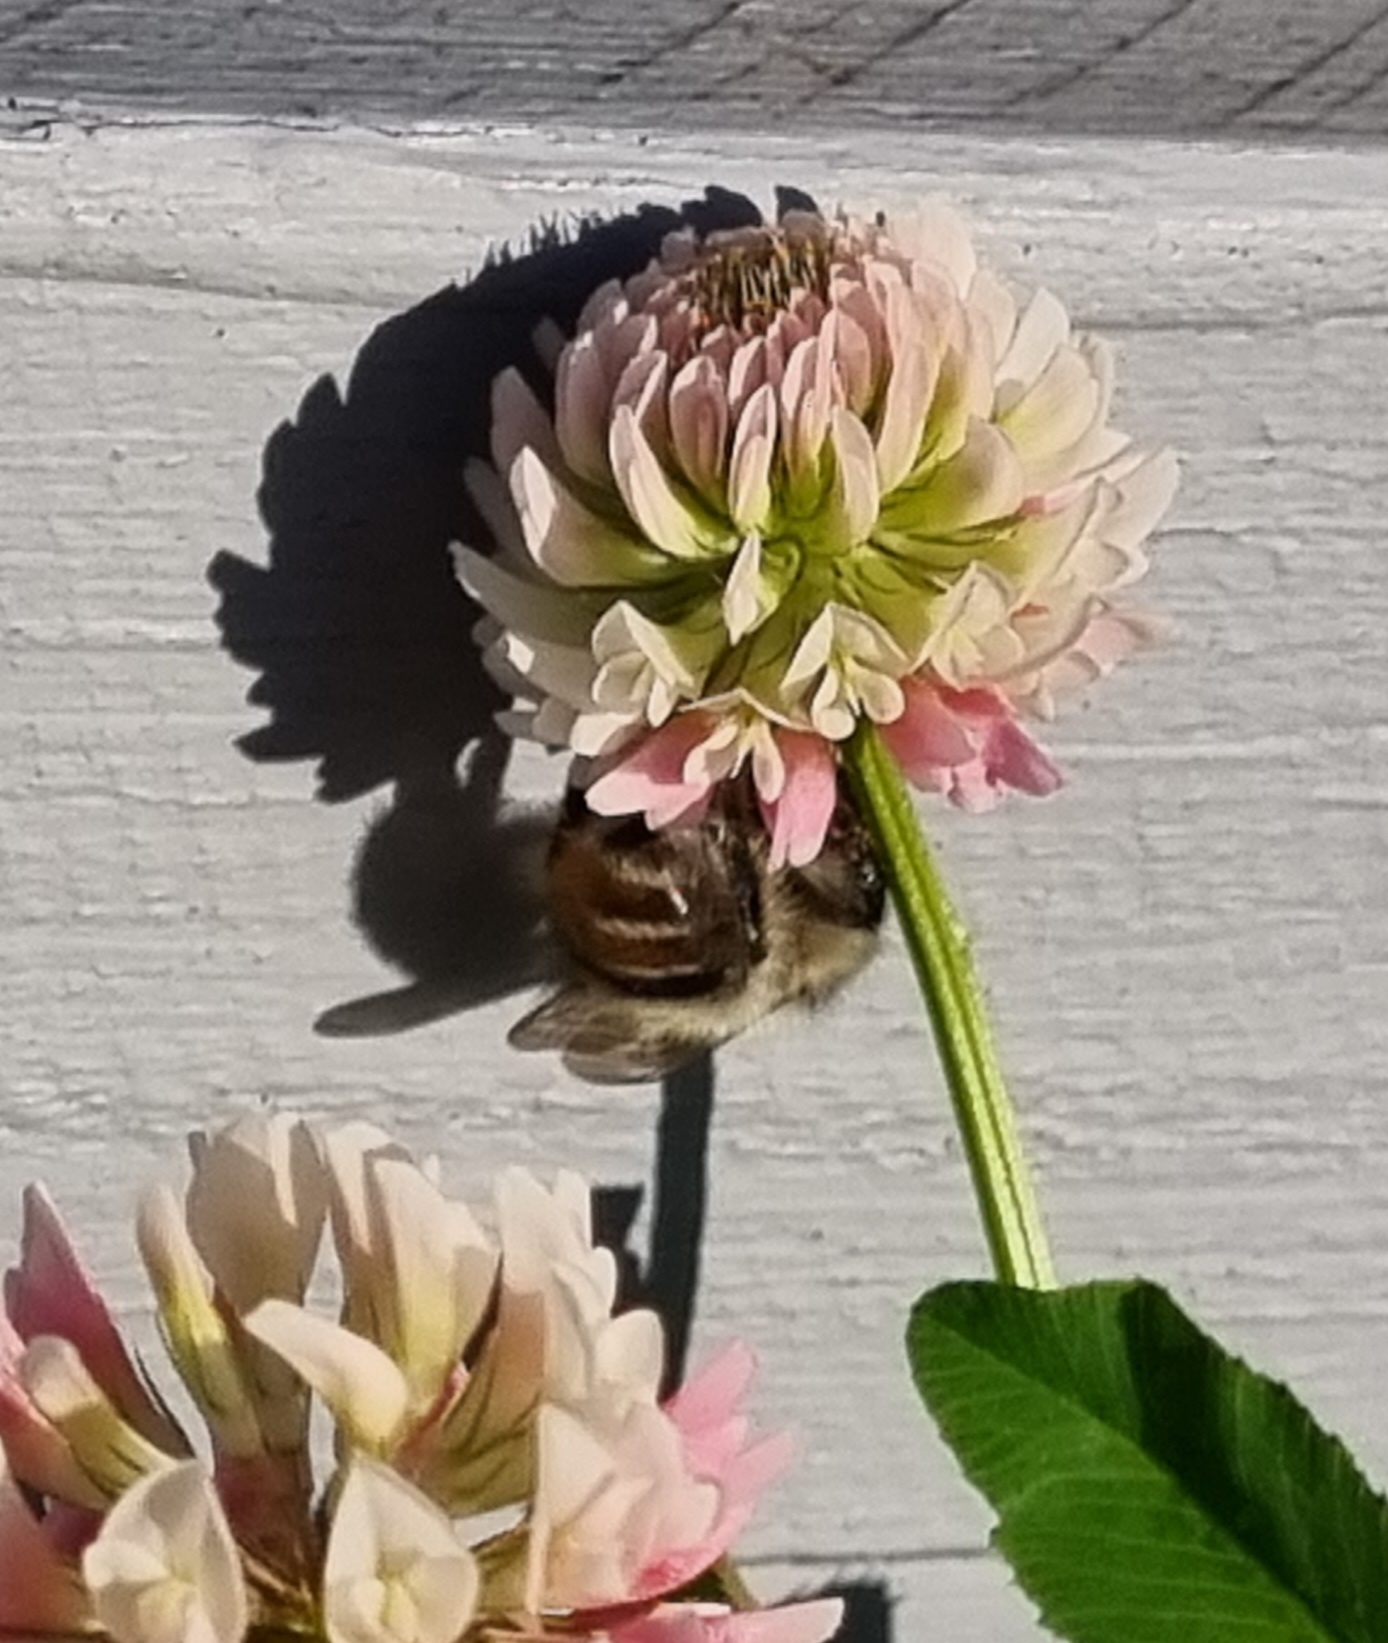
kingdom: Animalia
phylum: Arthropoda
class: Insecta
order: Hymenoptera
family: Apidae
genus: Bombus
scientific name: Bombus sylvarum
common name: Shrill carder bee
